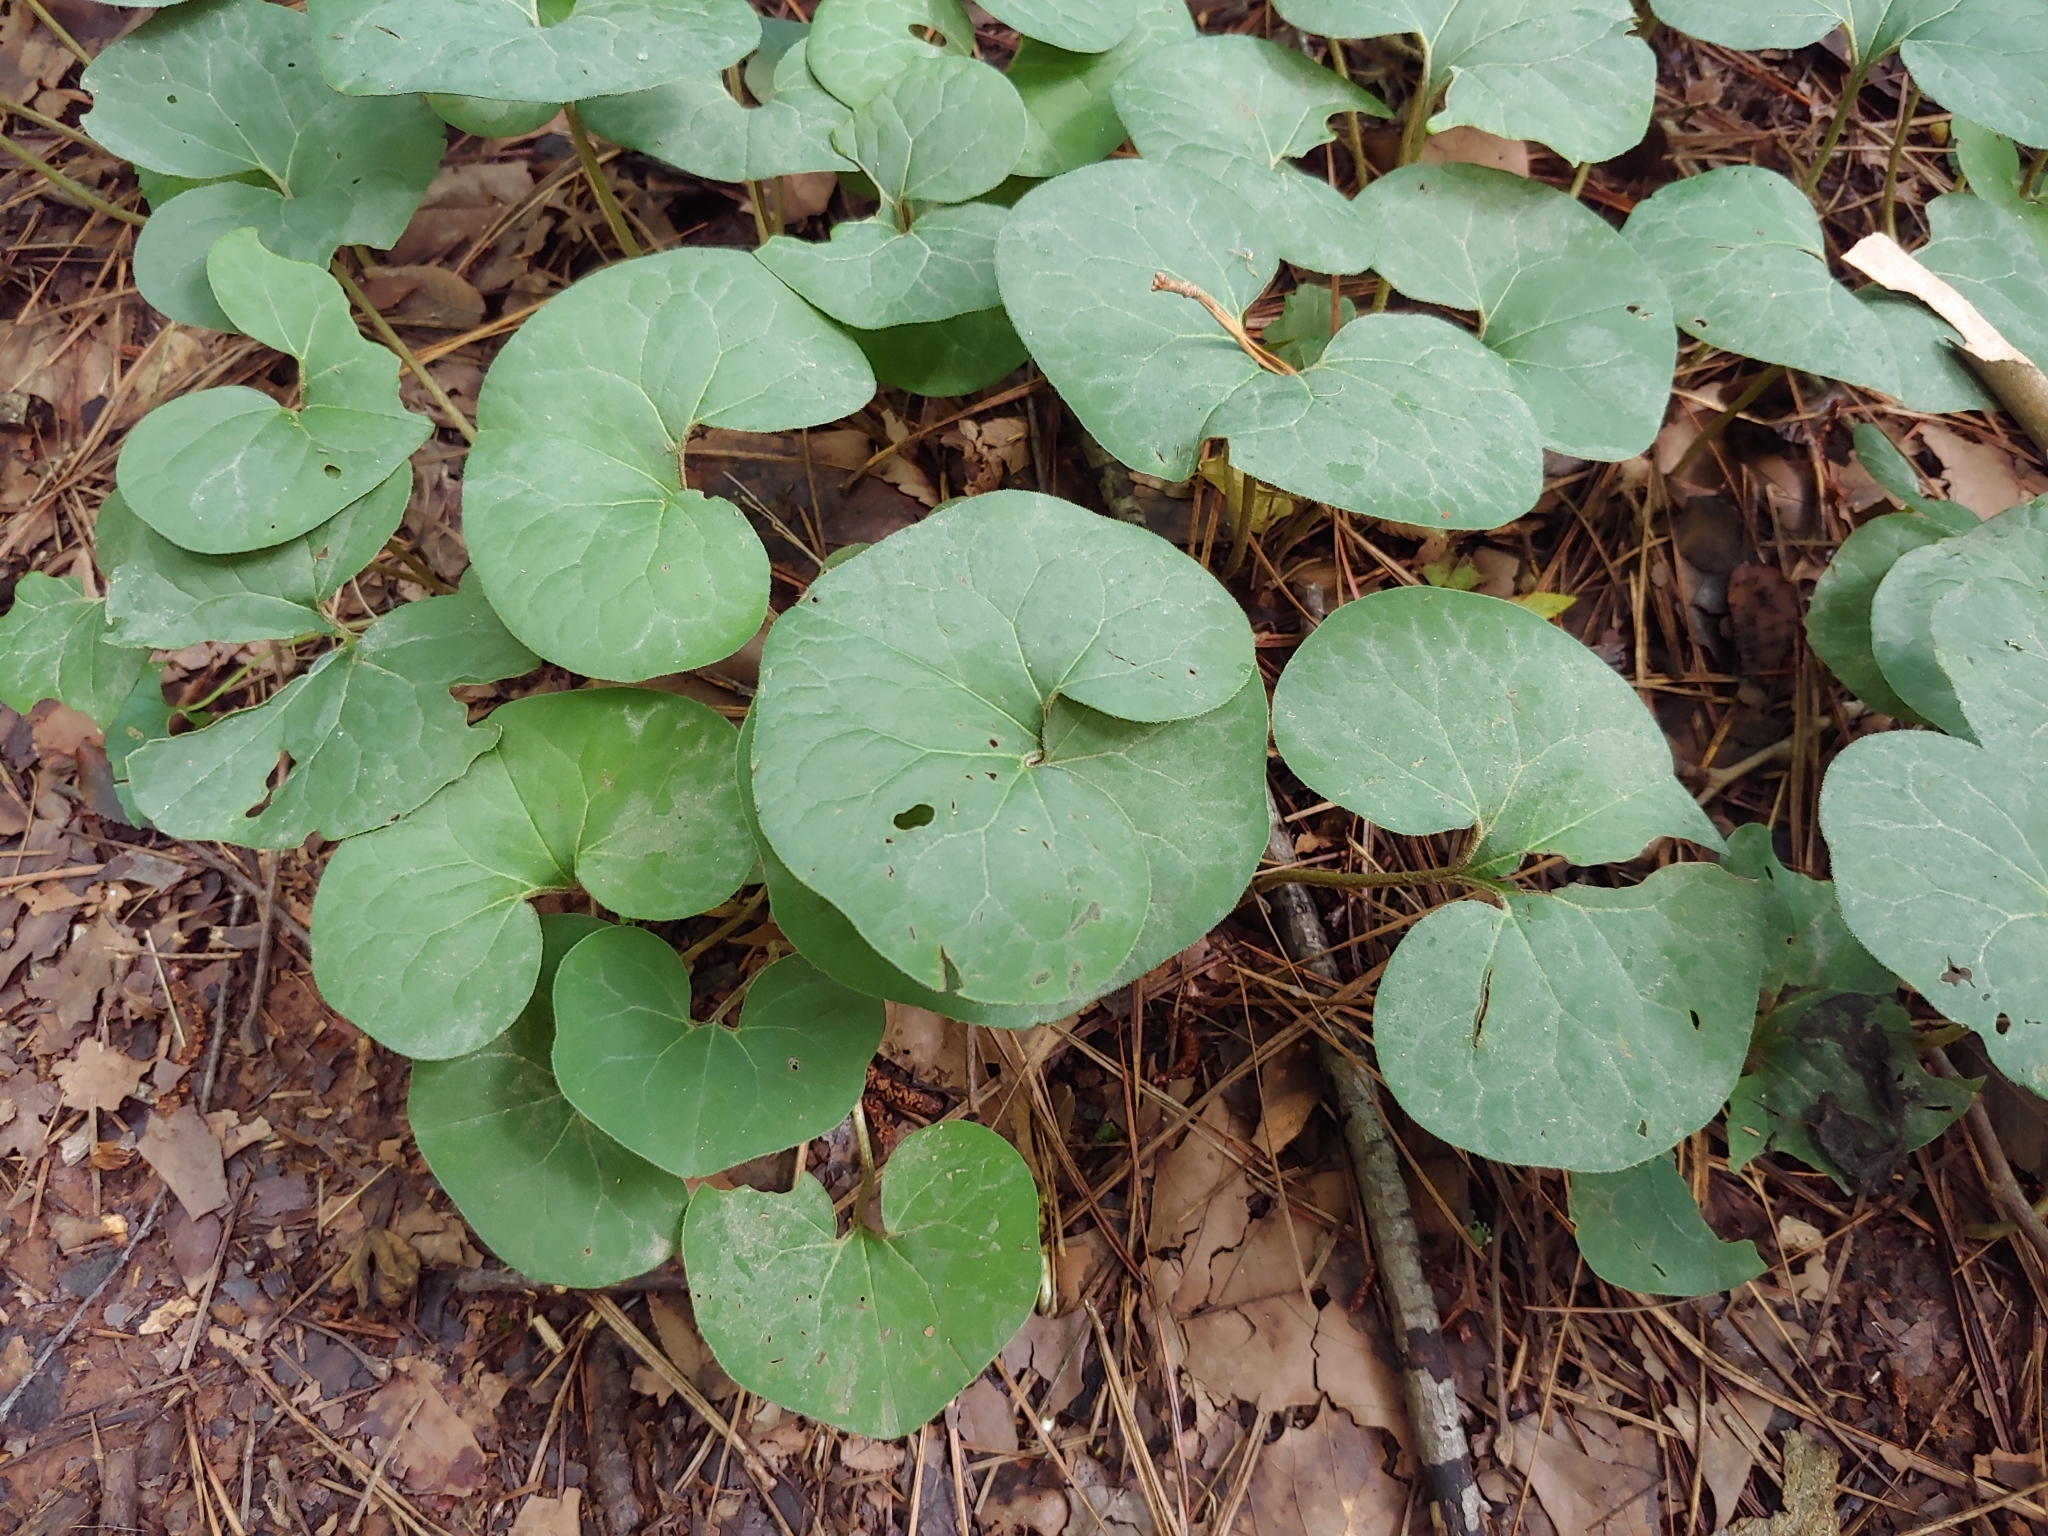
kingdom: Plantae
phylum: Tracheophyta
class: Magnoliopsida
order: Piperales
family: Aristolochiaceae
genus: Asarum
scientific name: Asarum canadense
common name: Wild ginger
